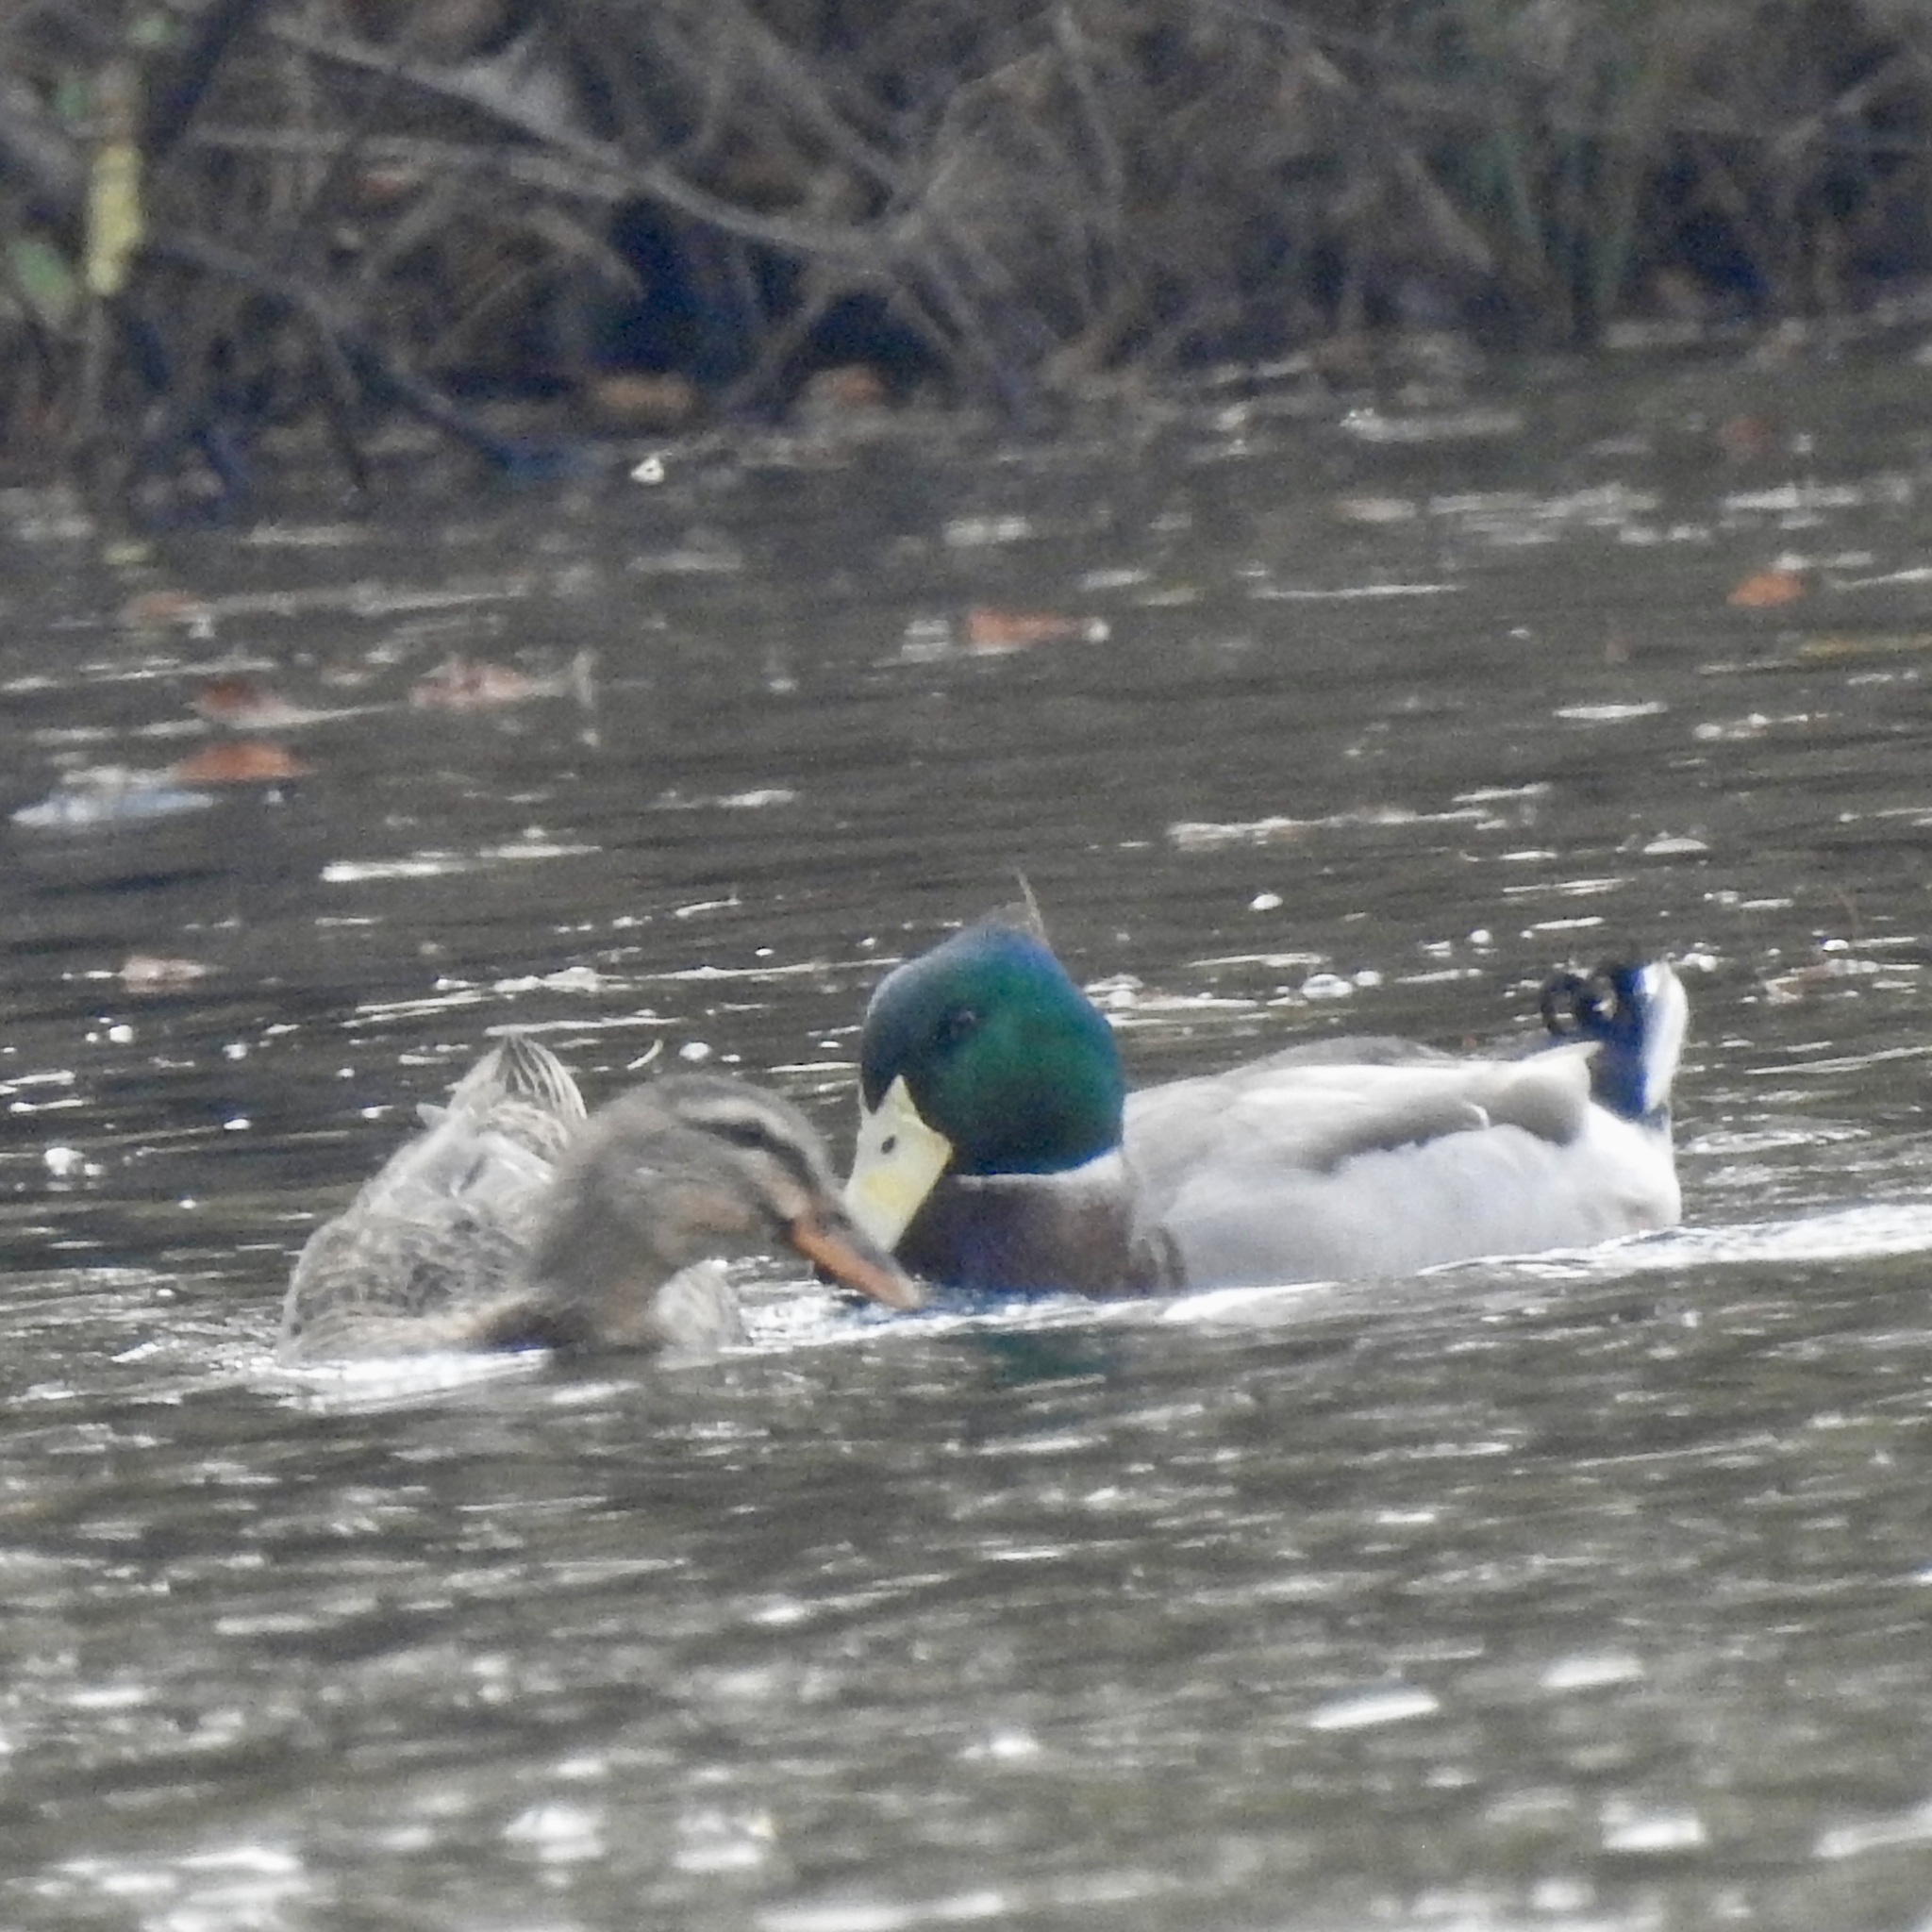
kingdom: Animalia
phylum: Chordata
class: Aves
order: Anseriformes
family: Anatidae
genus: Anas
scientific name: Anas platyrhynchos
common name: Mallard
